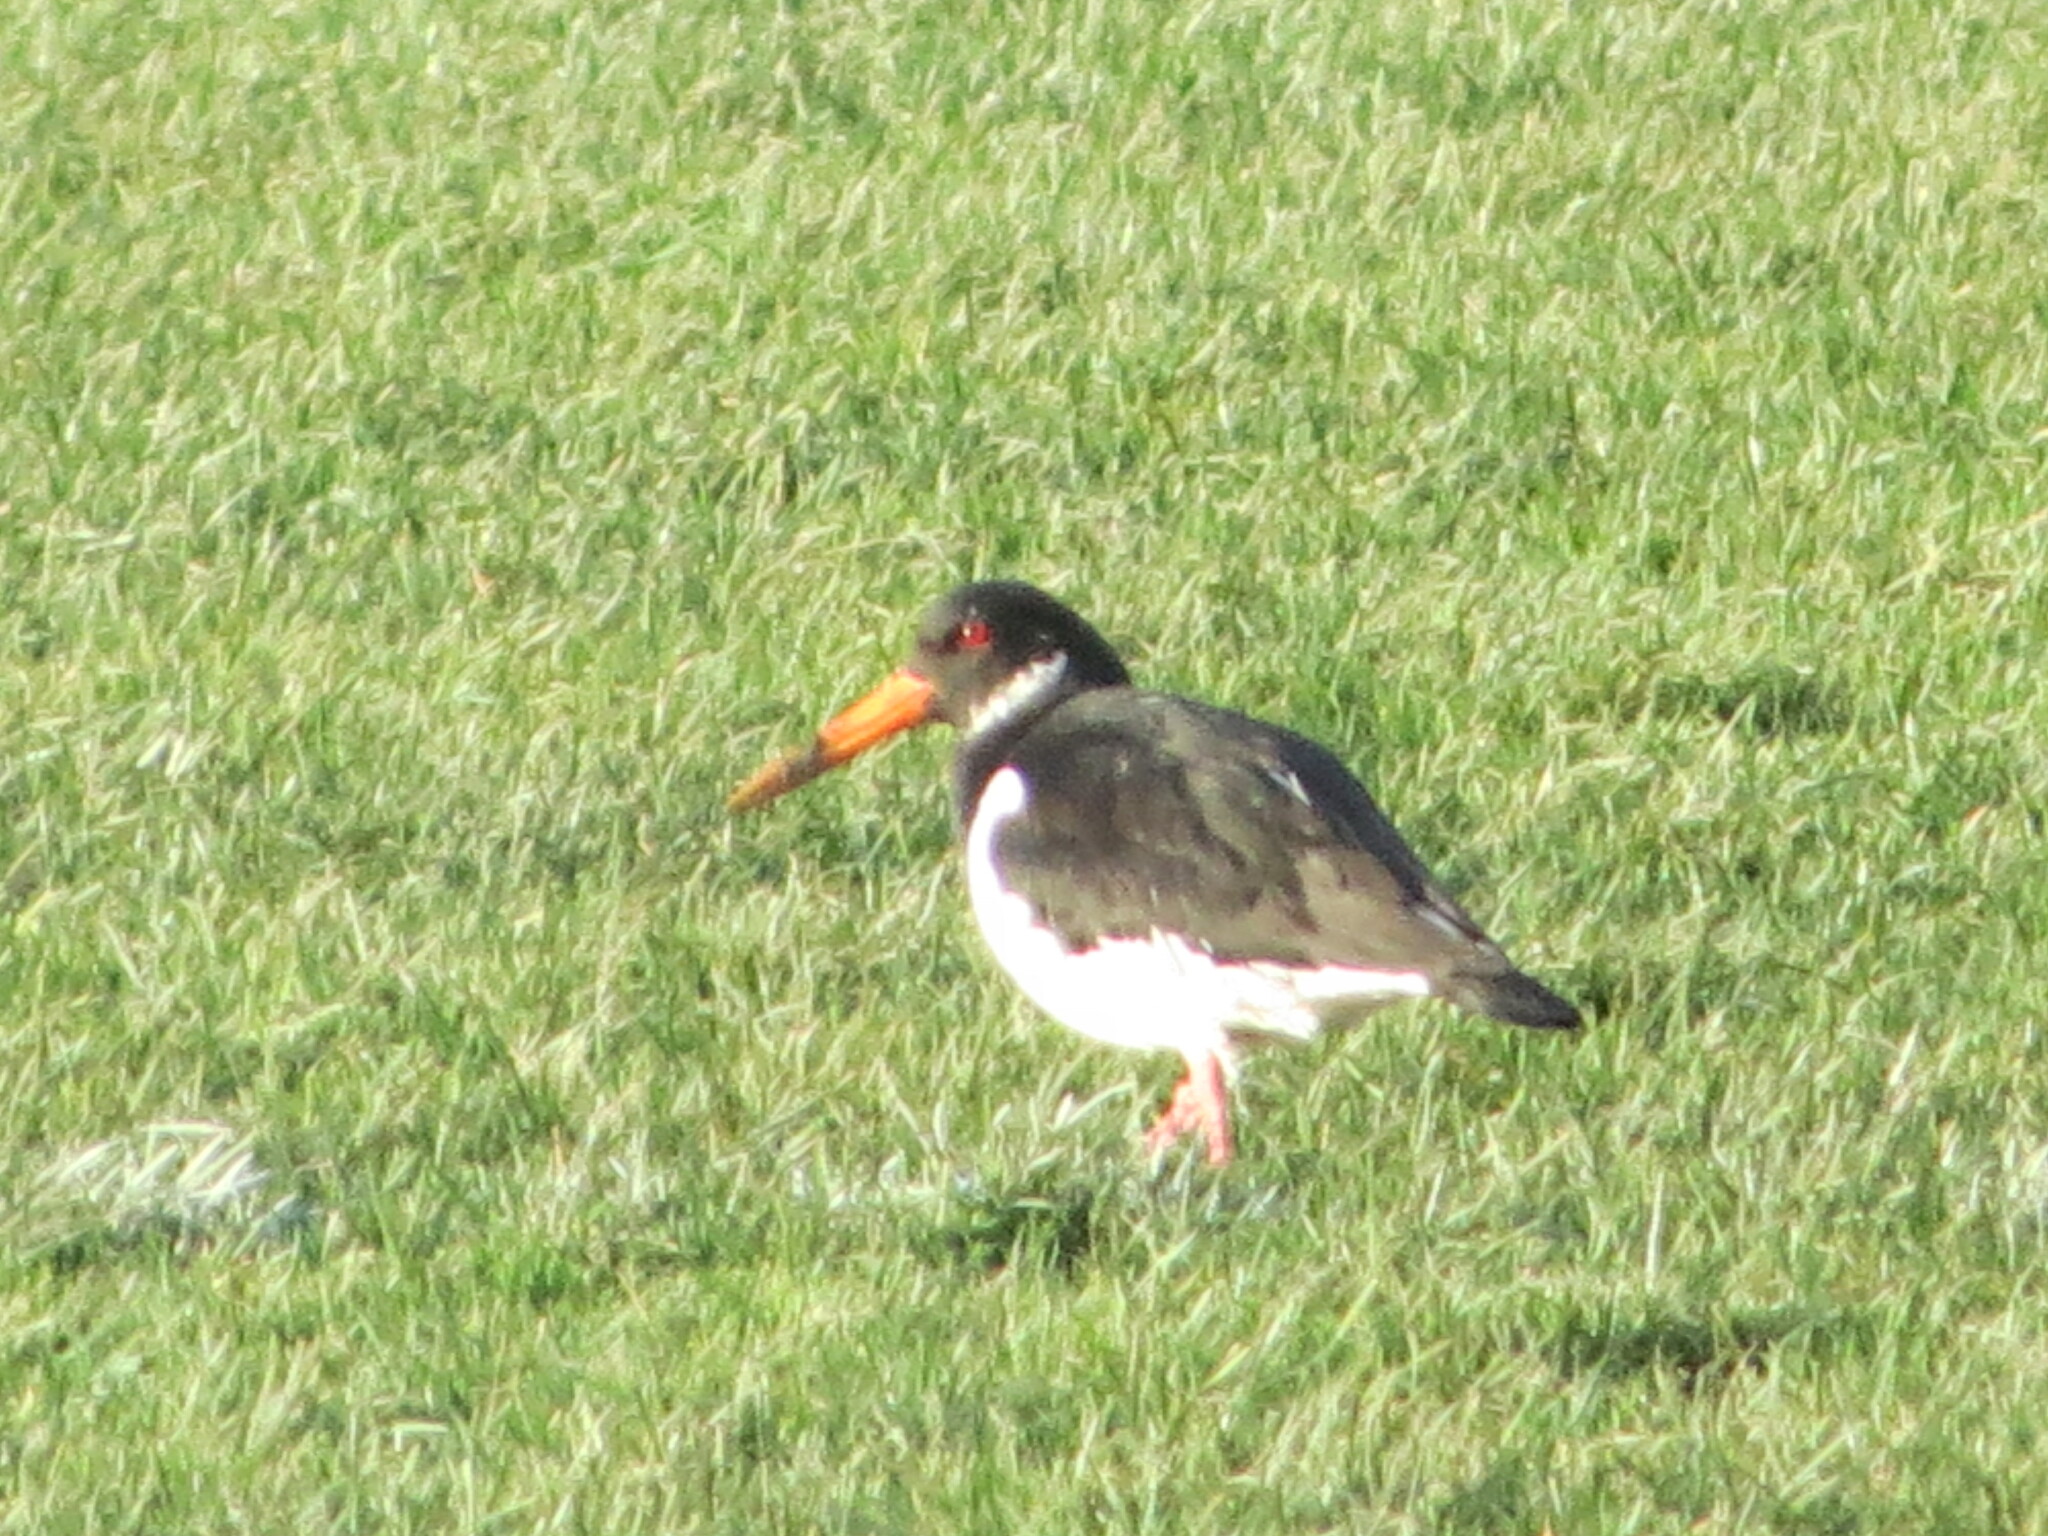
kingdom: Animalia
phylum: Chordata
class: Aves
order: Charadriiformes
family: Haematopodidae
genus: Haematopus
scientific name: Haematopus ostralegus
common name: Eurasian oystercatcher
